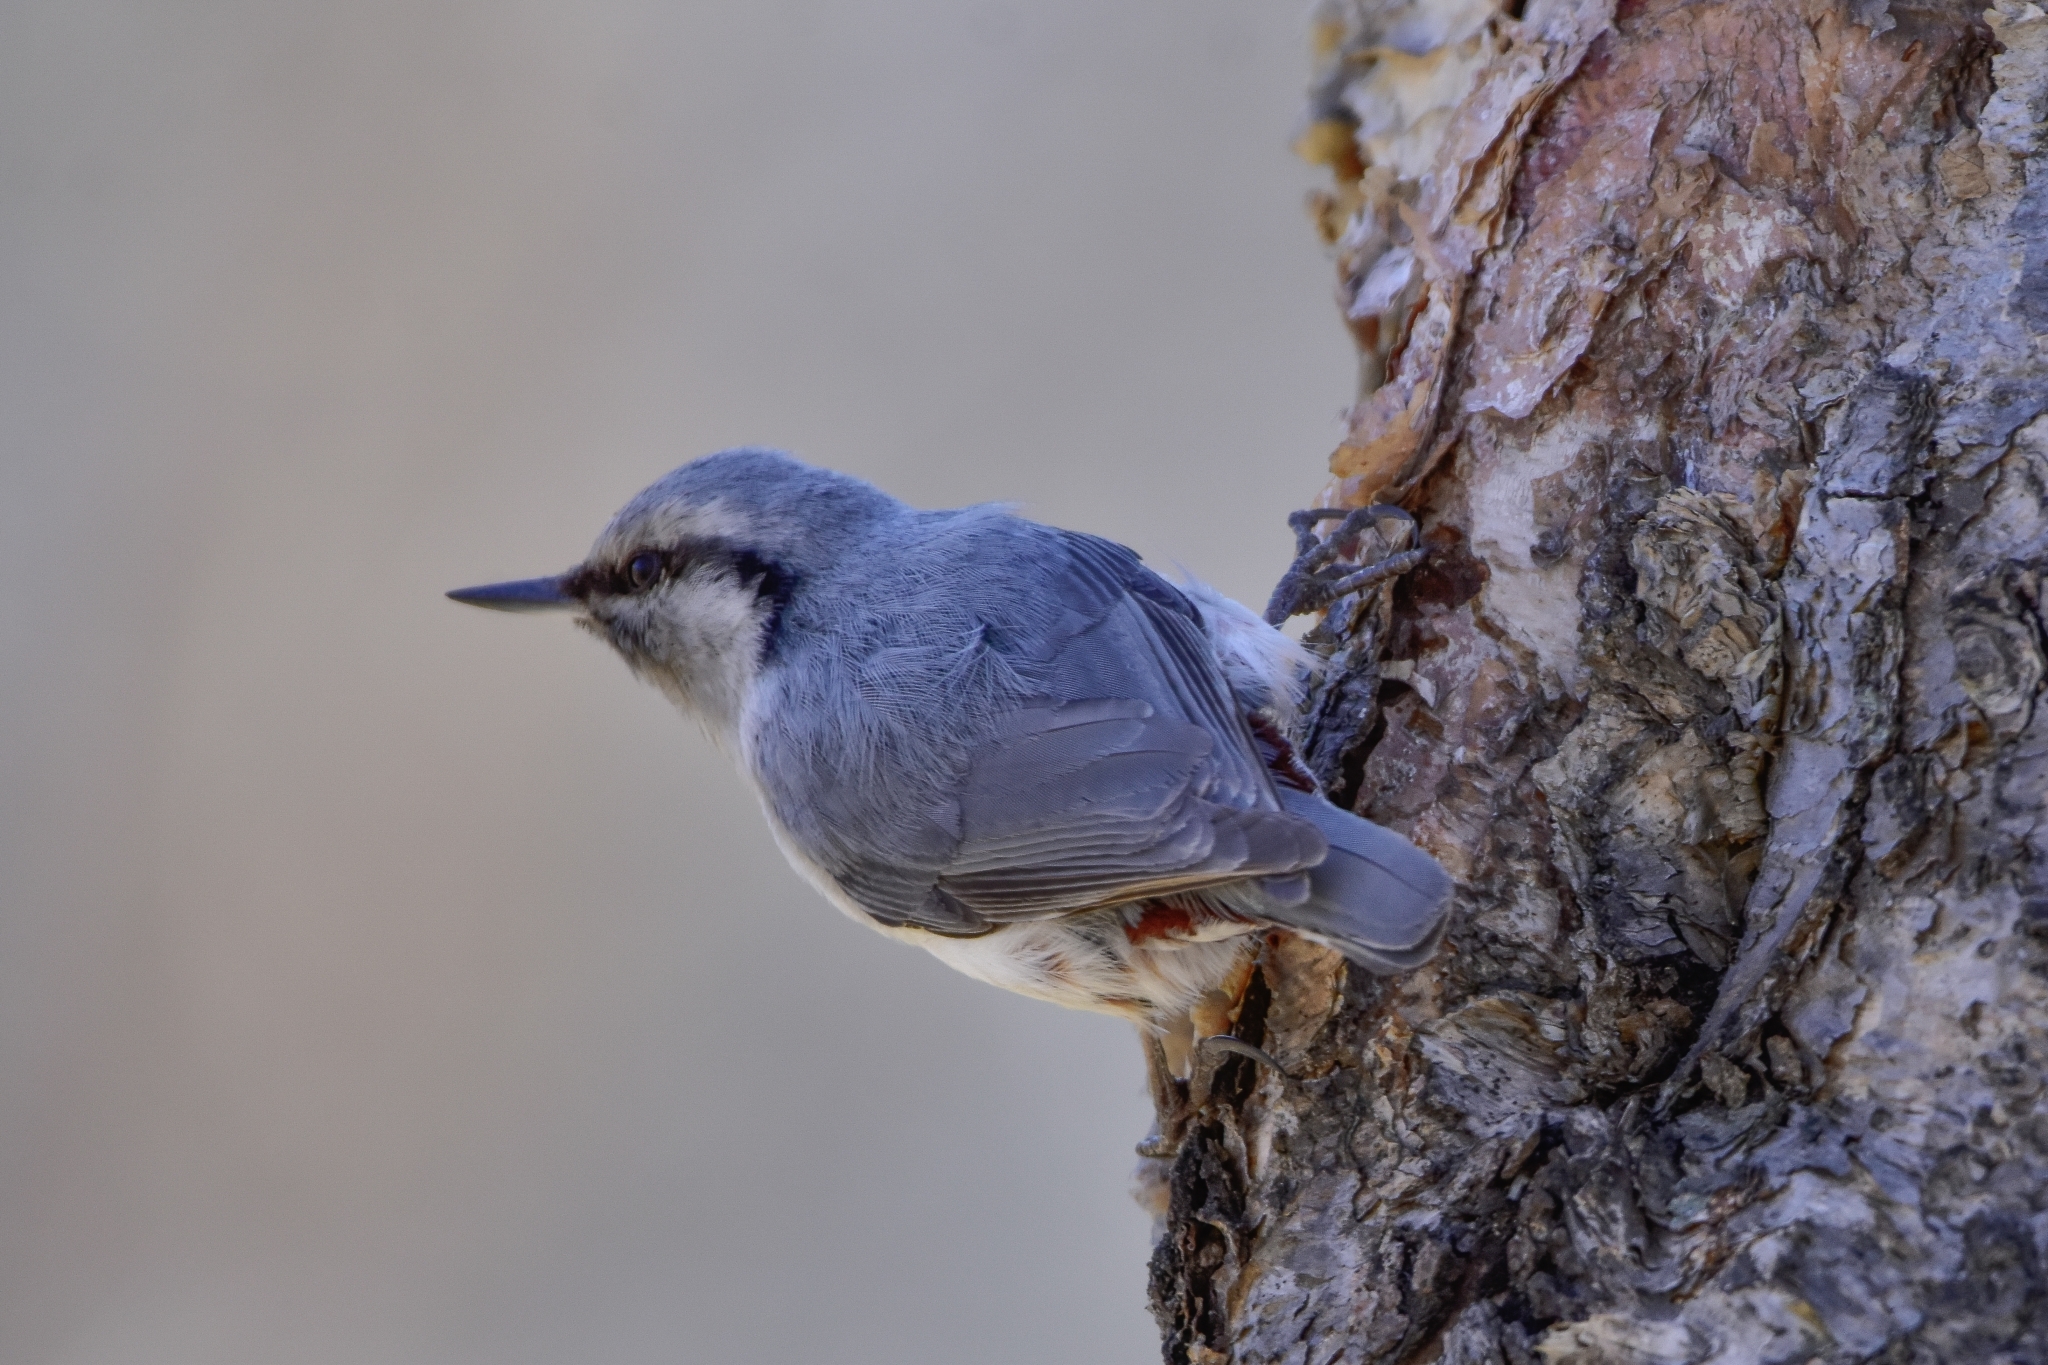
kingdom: Animalia
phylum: Chordata
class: Aves
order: Passeriformes
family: Sittidae
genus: Sitta
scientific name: Sitta europaea
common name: Eurasian nuthatch
